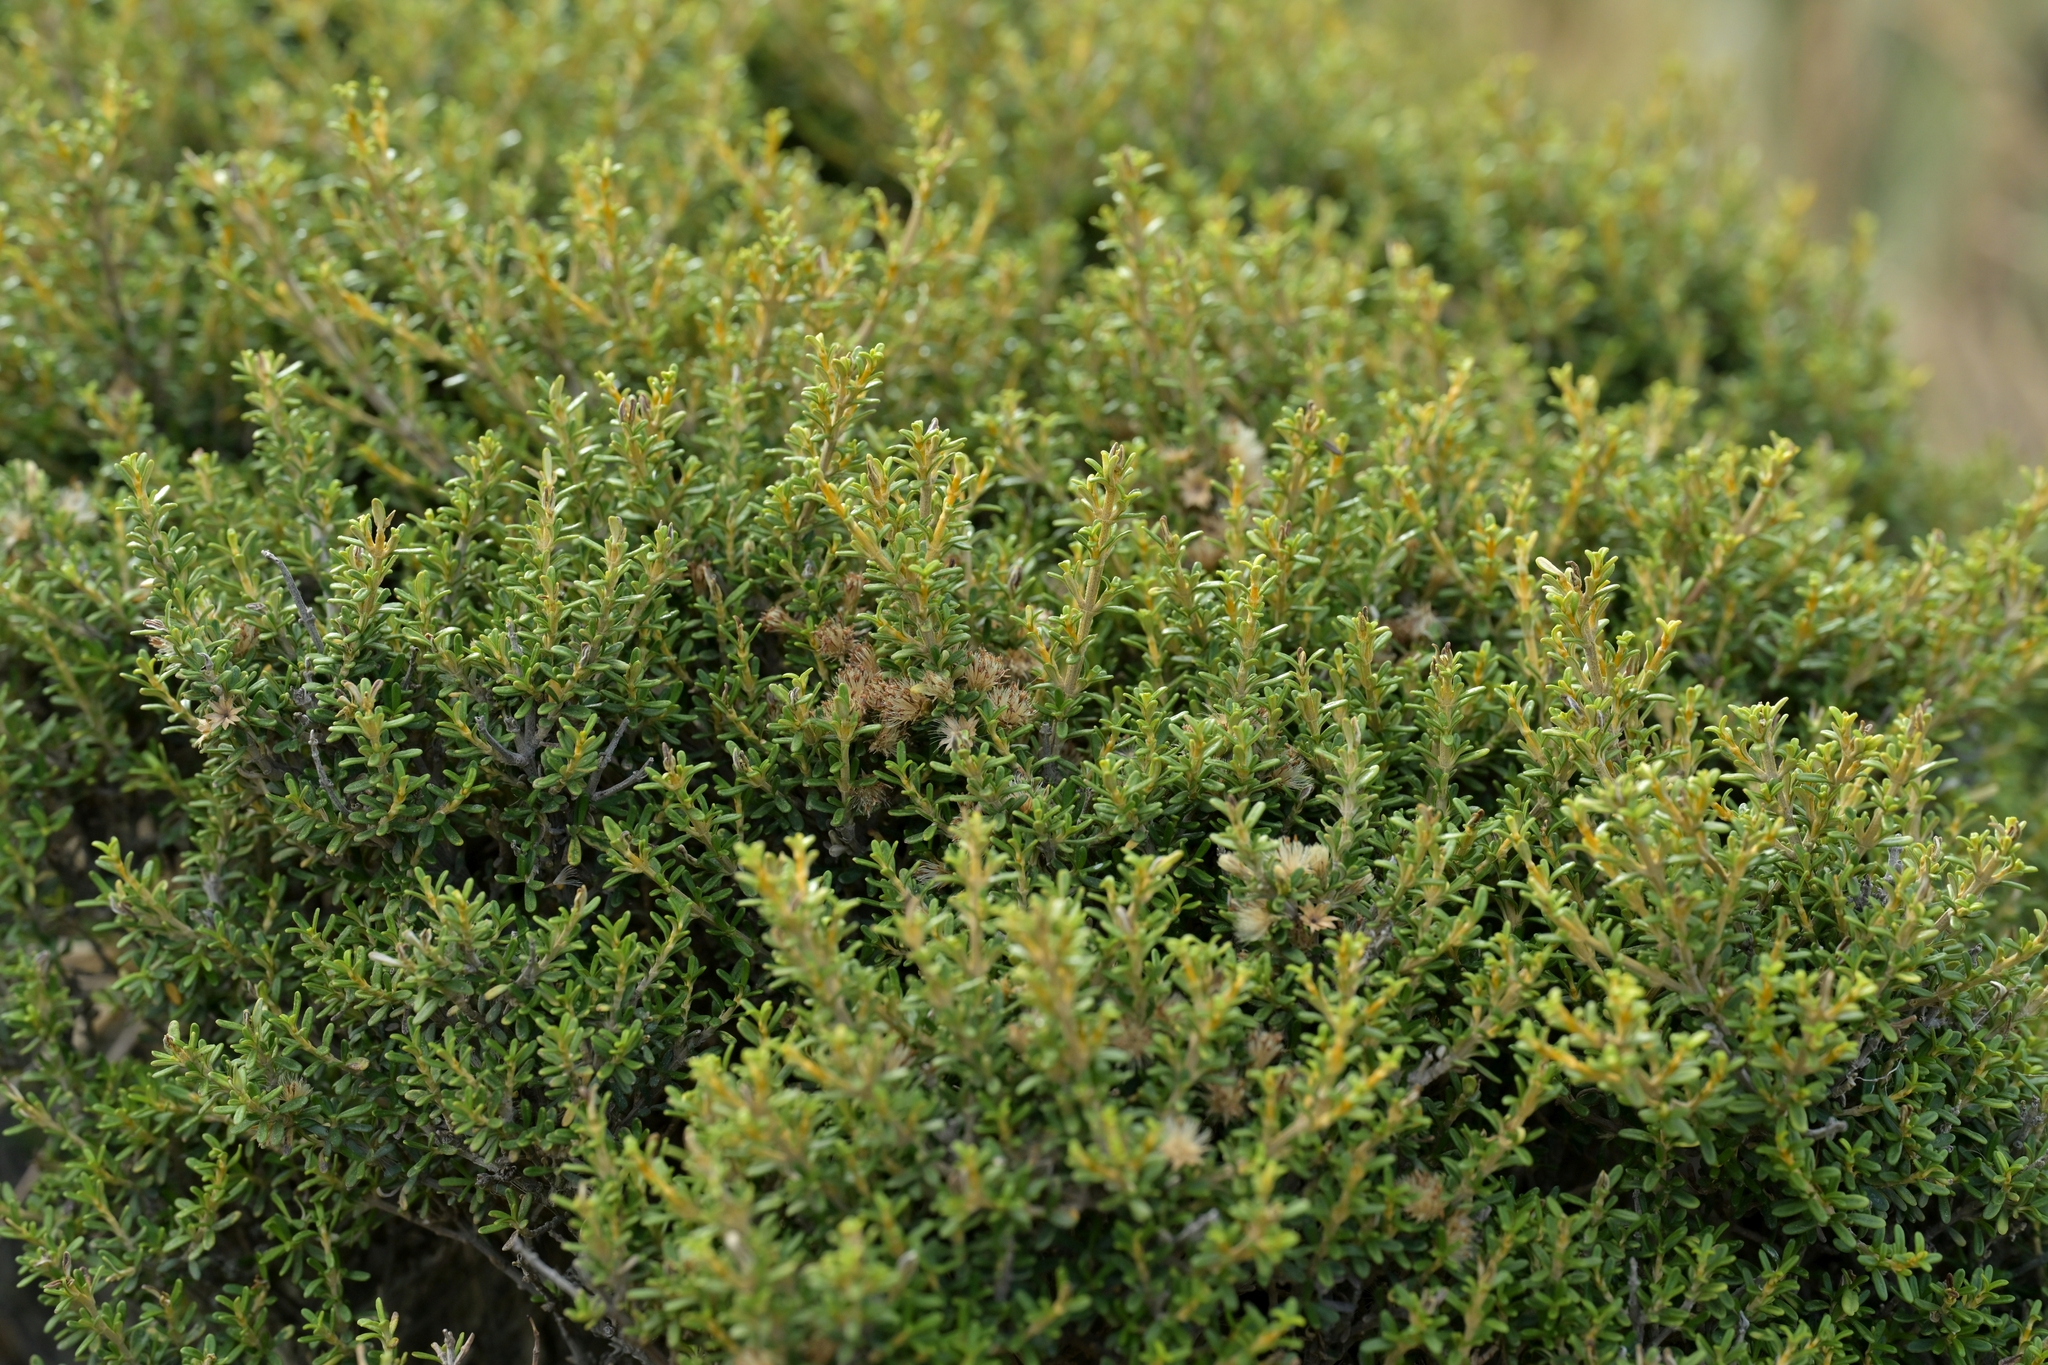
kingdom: Plantae
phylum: Tracheophyta
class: Magnoliopsida
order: Asterales
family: Asteraceae
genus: Olearia
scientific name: Olearia solandri
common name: Coastal daisybush
